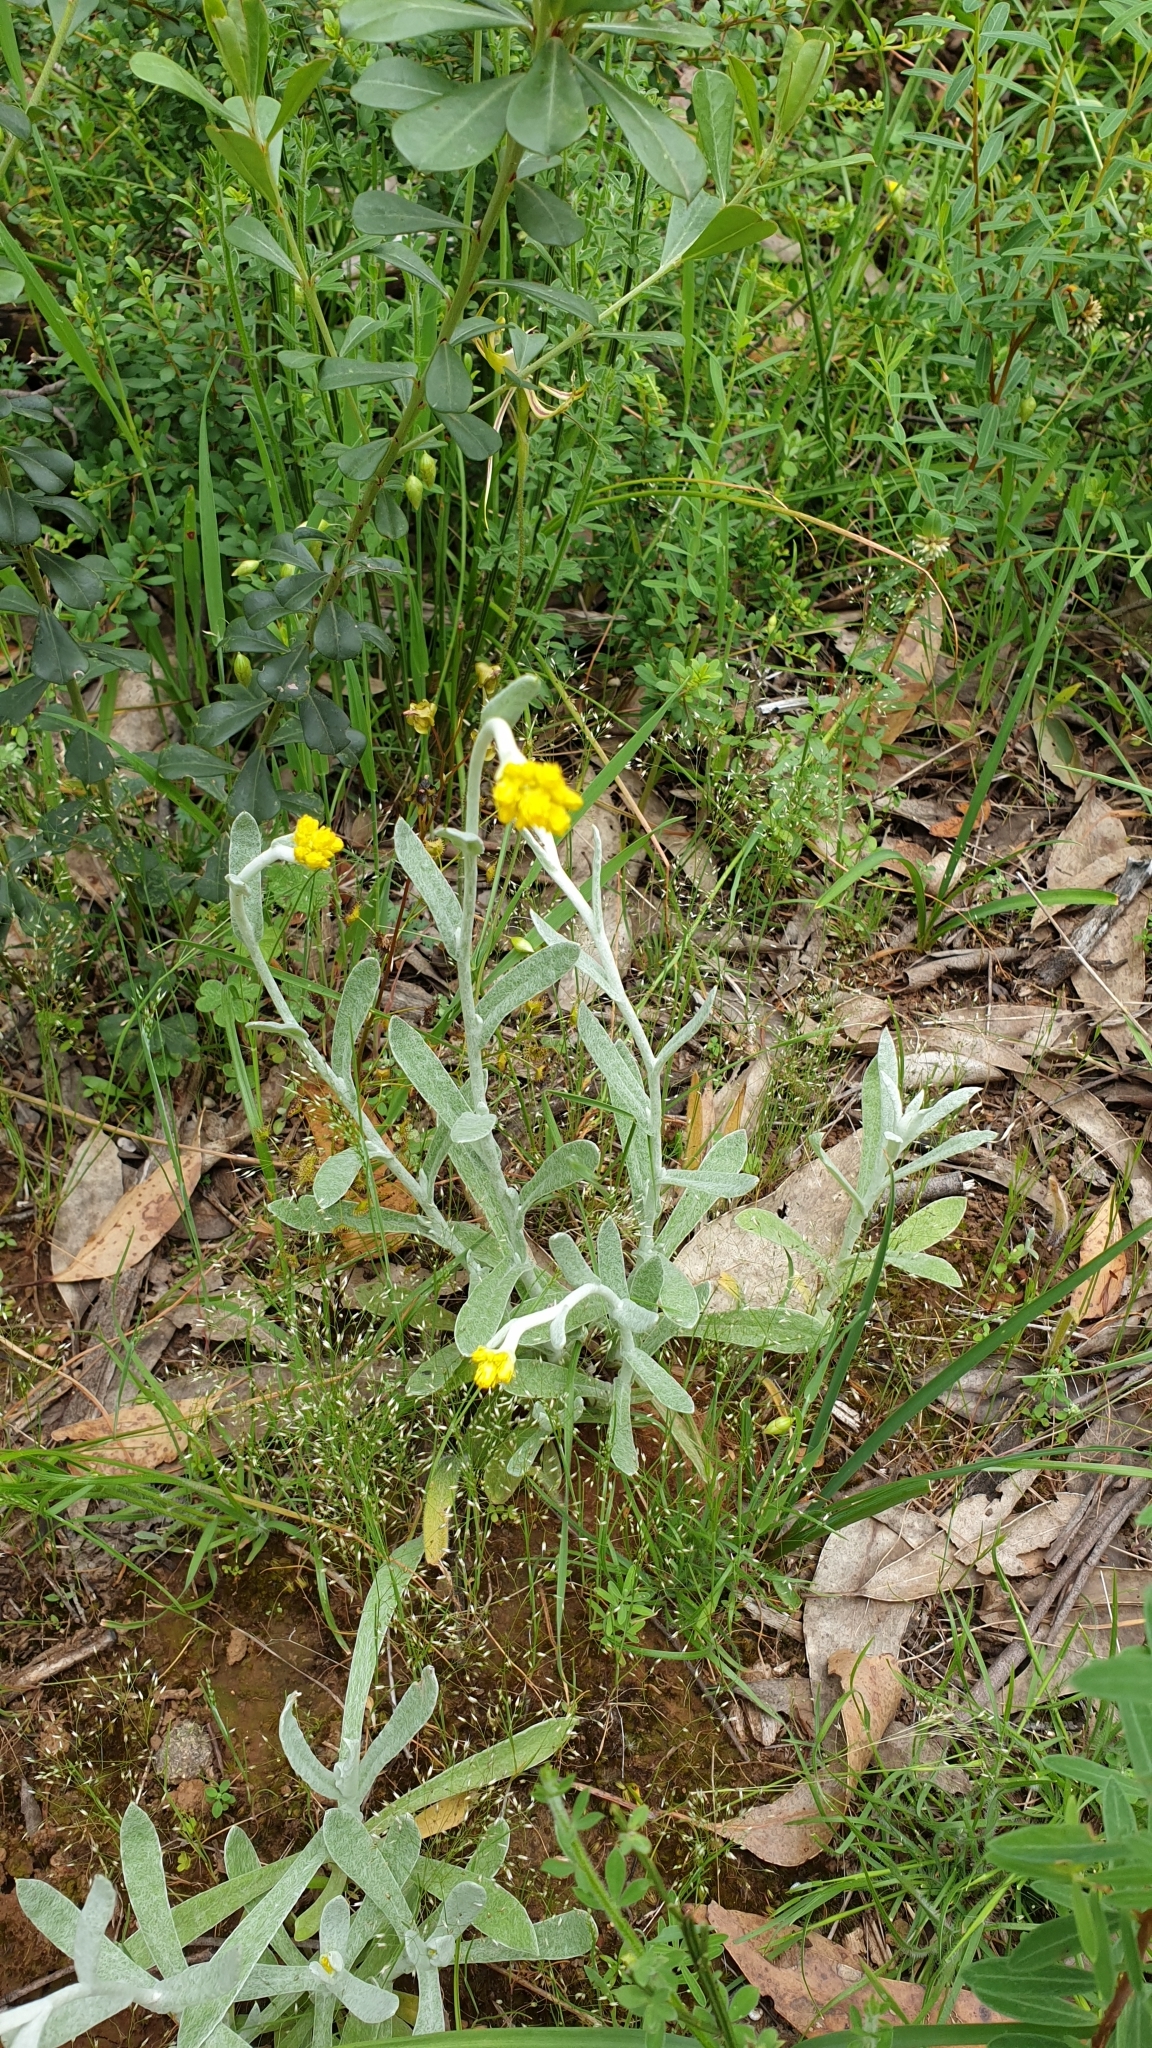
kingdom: Plantae
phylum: Tracheophyta
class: Magnoliopsida
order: Asterales
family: Asteraceae
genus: Chrysocephalum
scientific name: Chrysocephalum apiculatum
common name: Common everlasting
